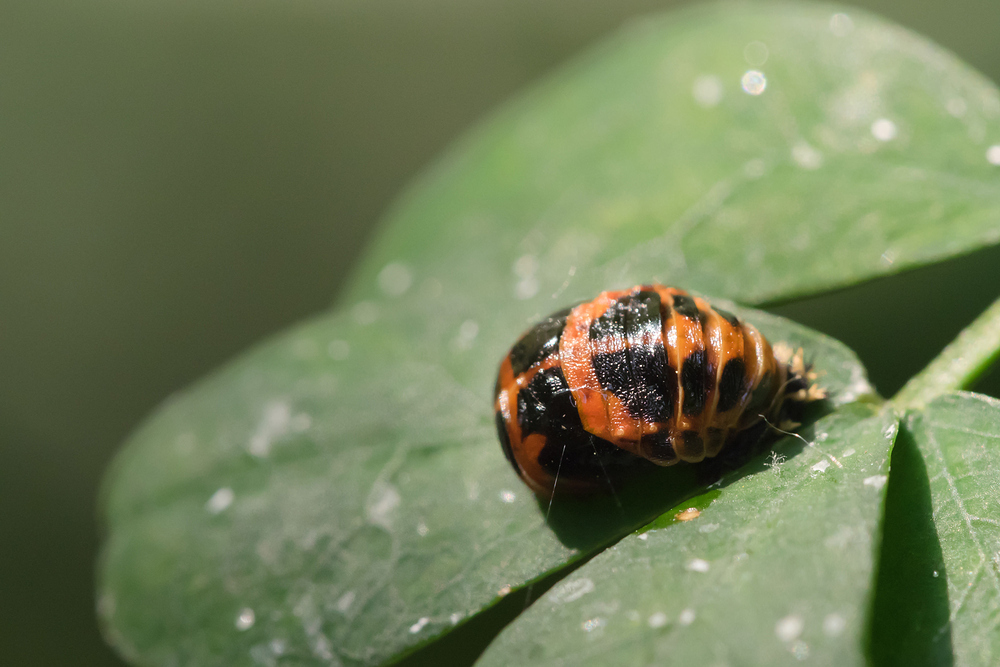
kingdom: Animalia
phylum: Arthropoda
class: Insecta
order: Coleoptera
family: Coccinellidae
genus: Harmonia
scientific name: Harmonia axyridis
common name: Harlequin ladybird
